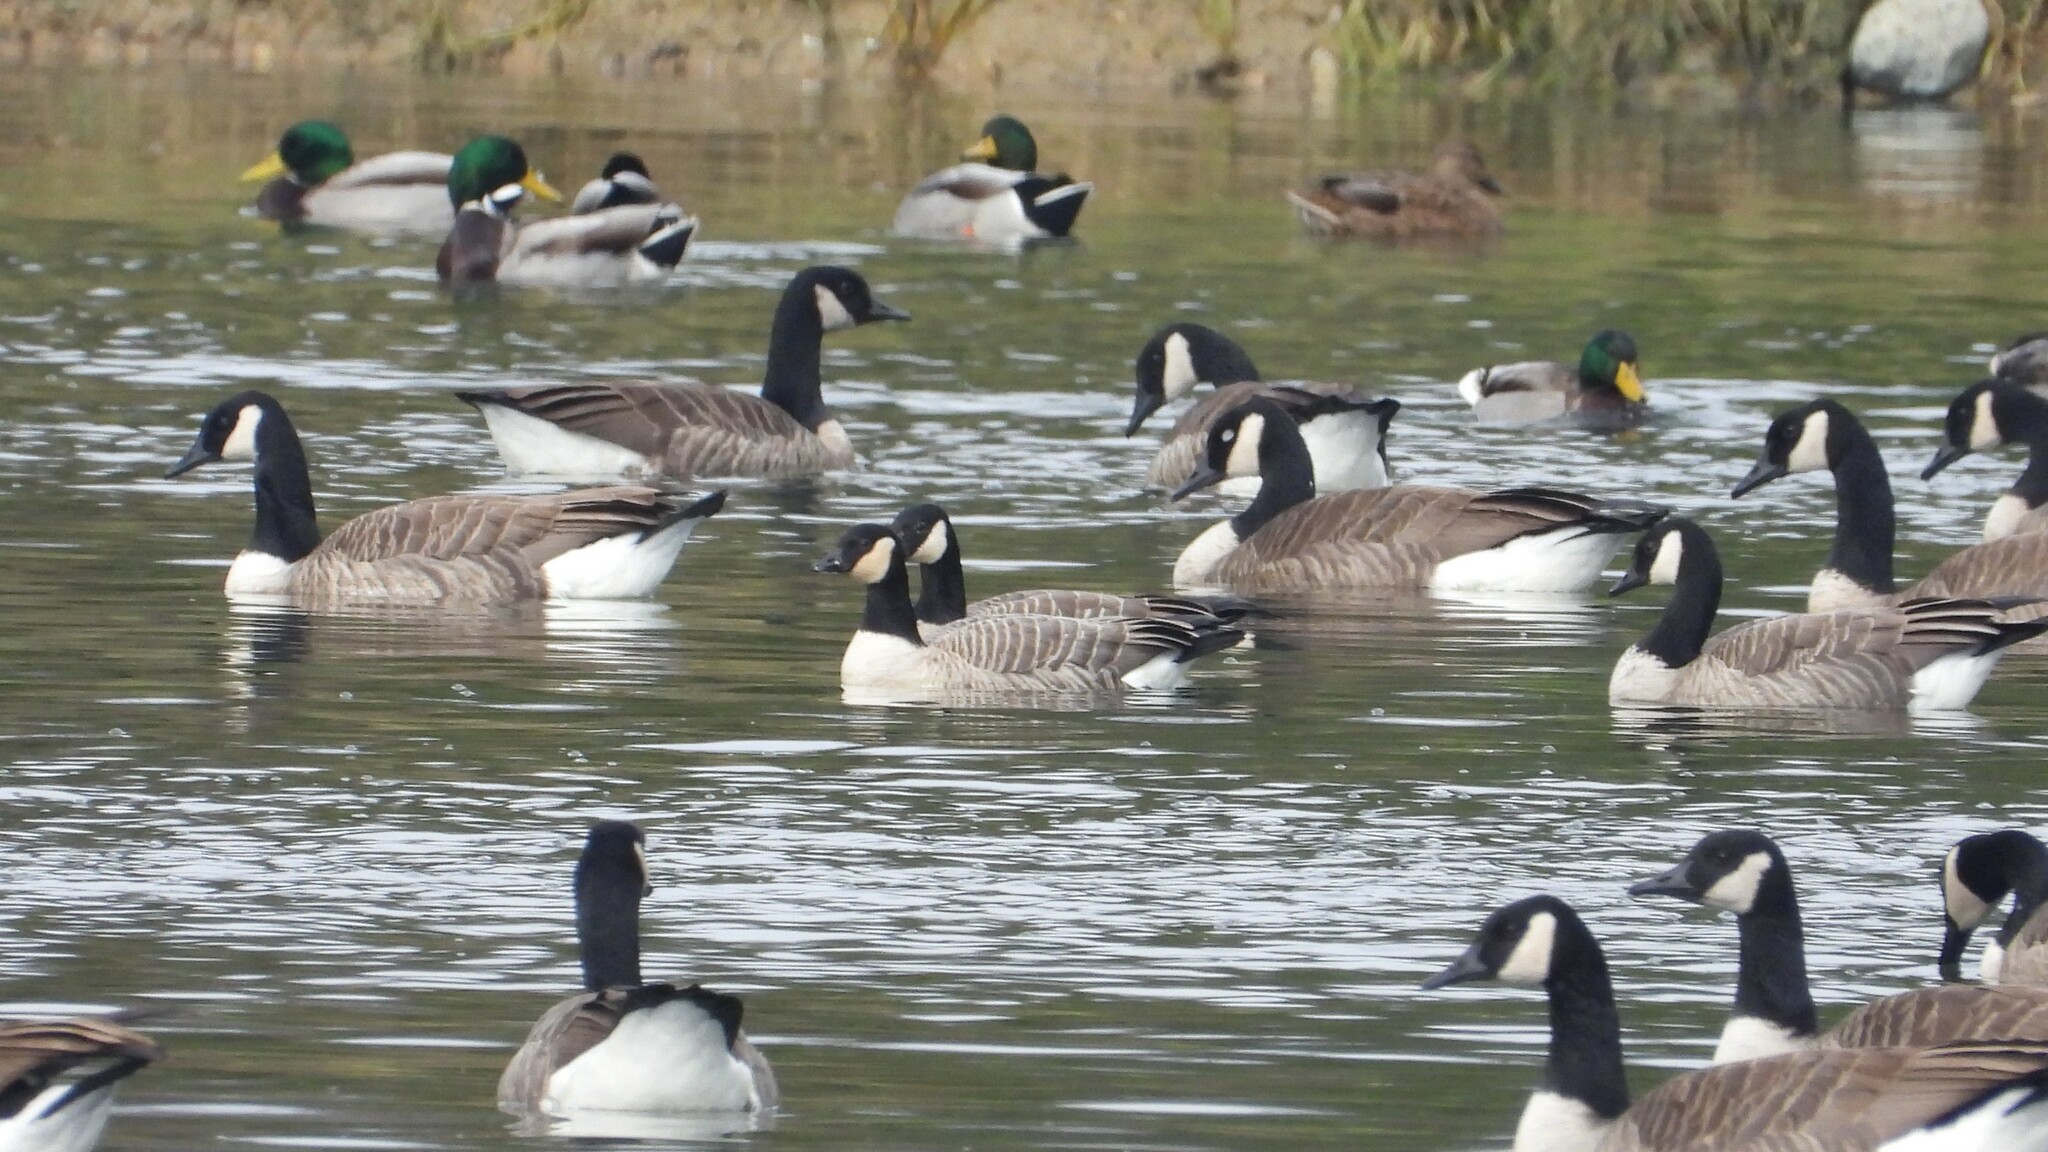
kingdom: Animalia
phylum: Chordata
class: Aves
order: Anseriformes
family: Anatidae
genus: Branta
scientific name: Branta hutchinsii
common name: Cackling goose
